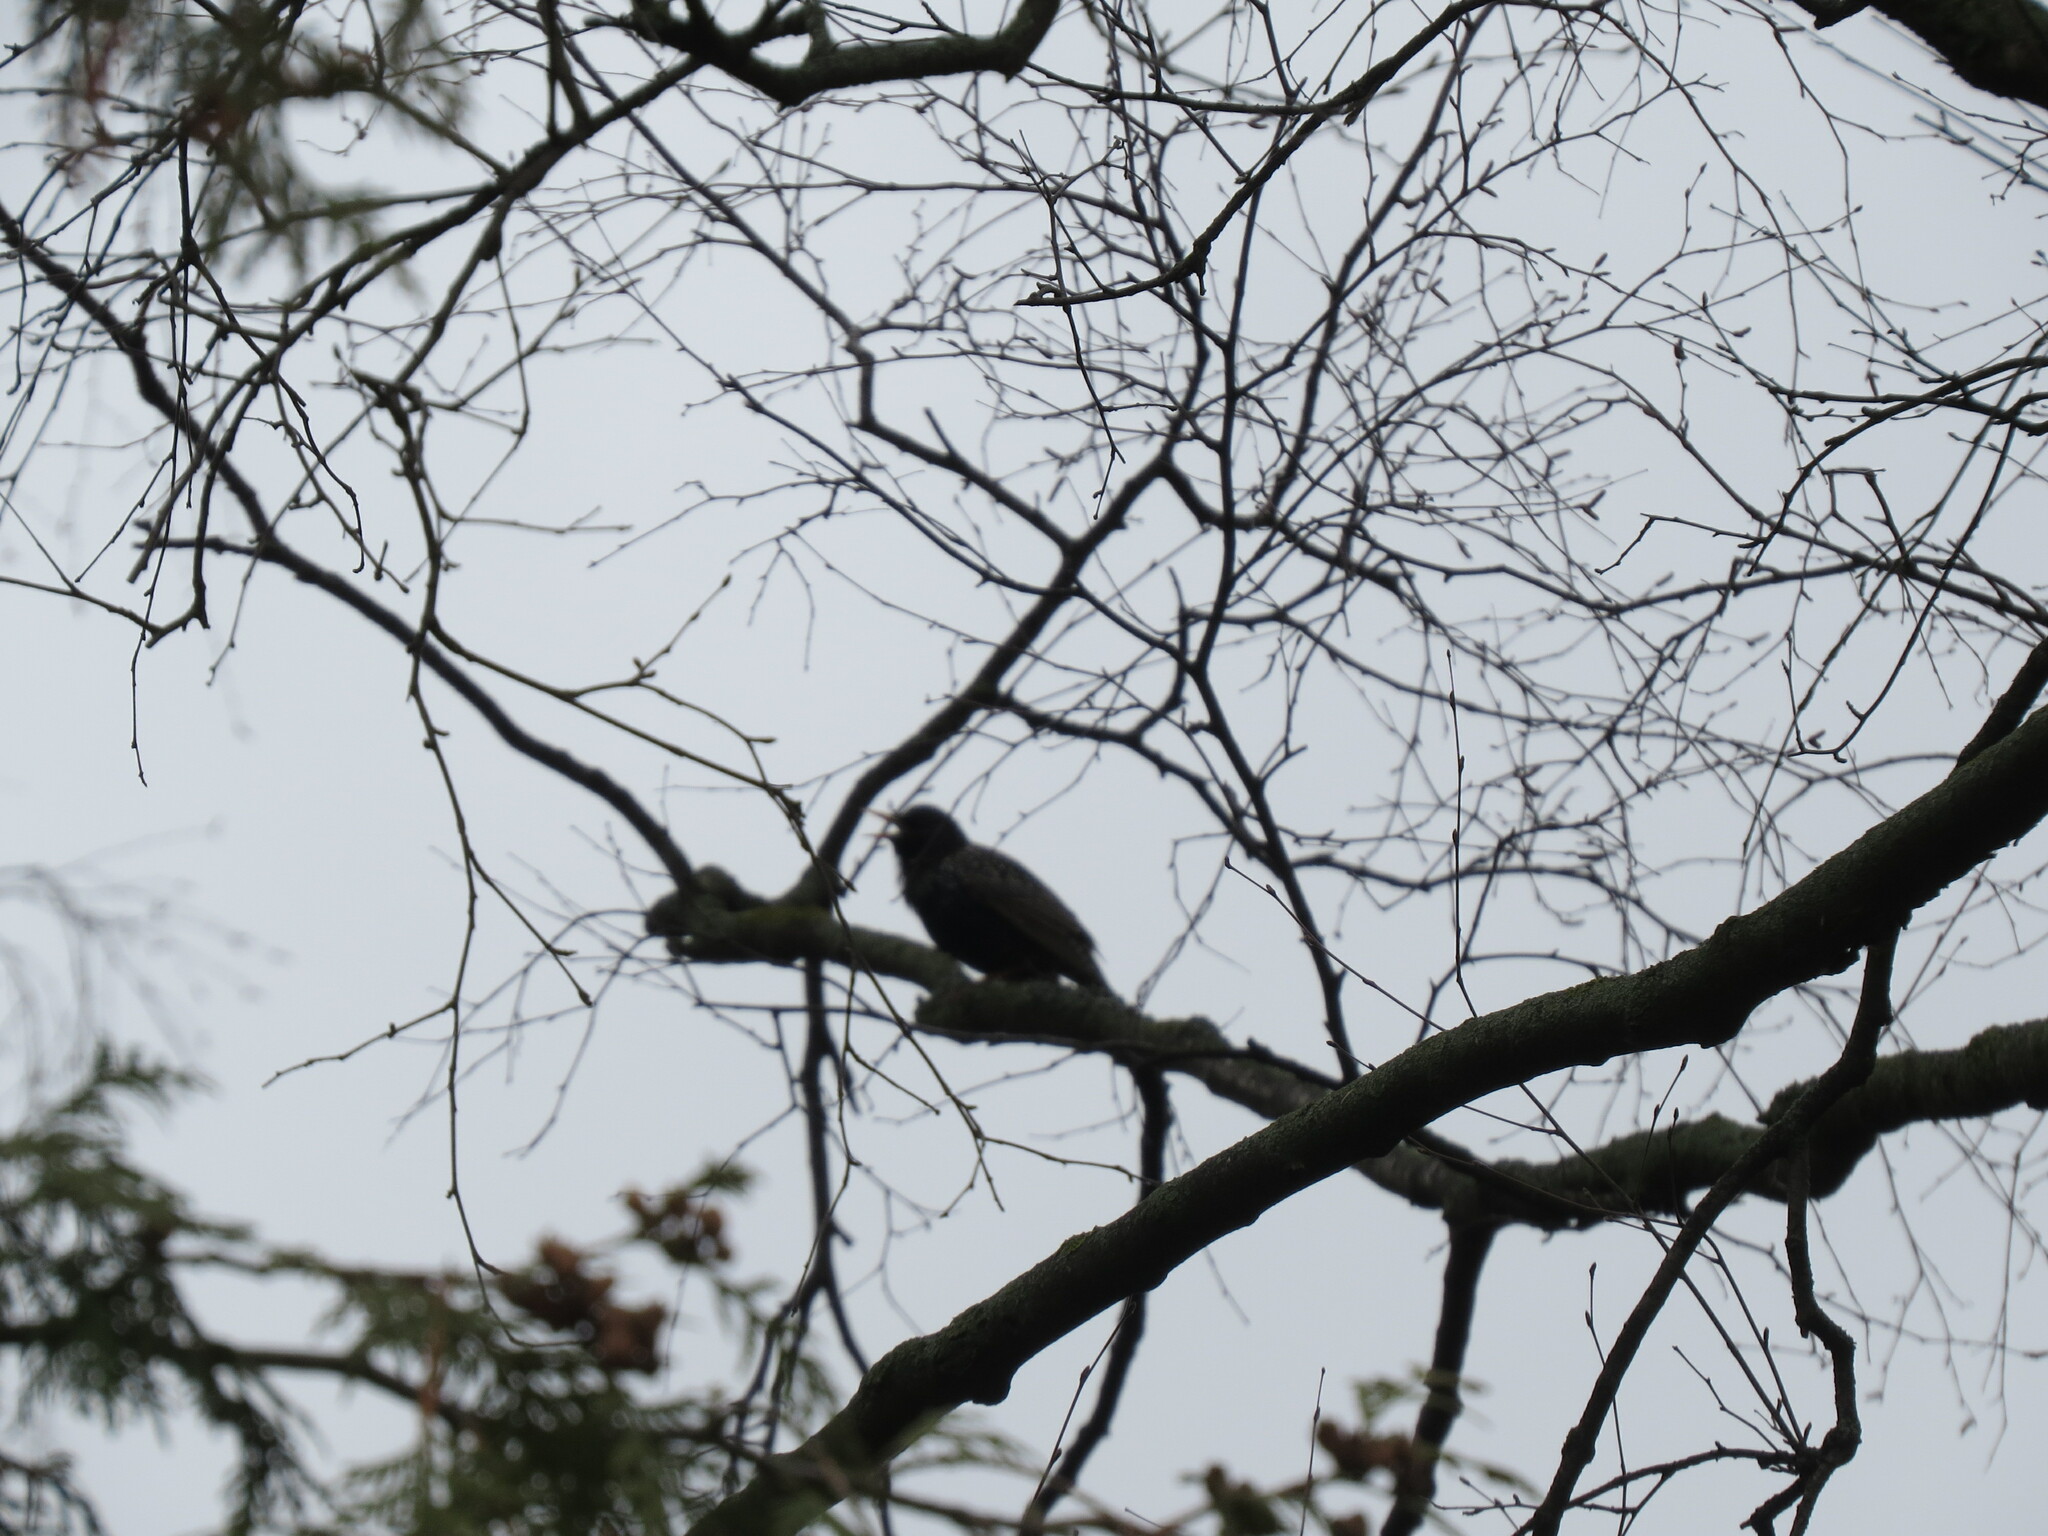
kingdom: Animalia
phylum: Chordata
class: Aves
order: Passeriformes
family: Sturnidae
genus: Sturnus
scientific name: Sturnus vulgaris
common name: Common starling
